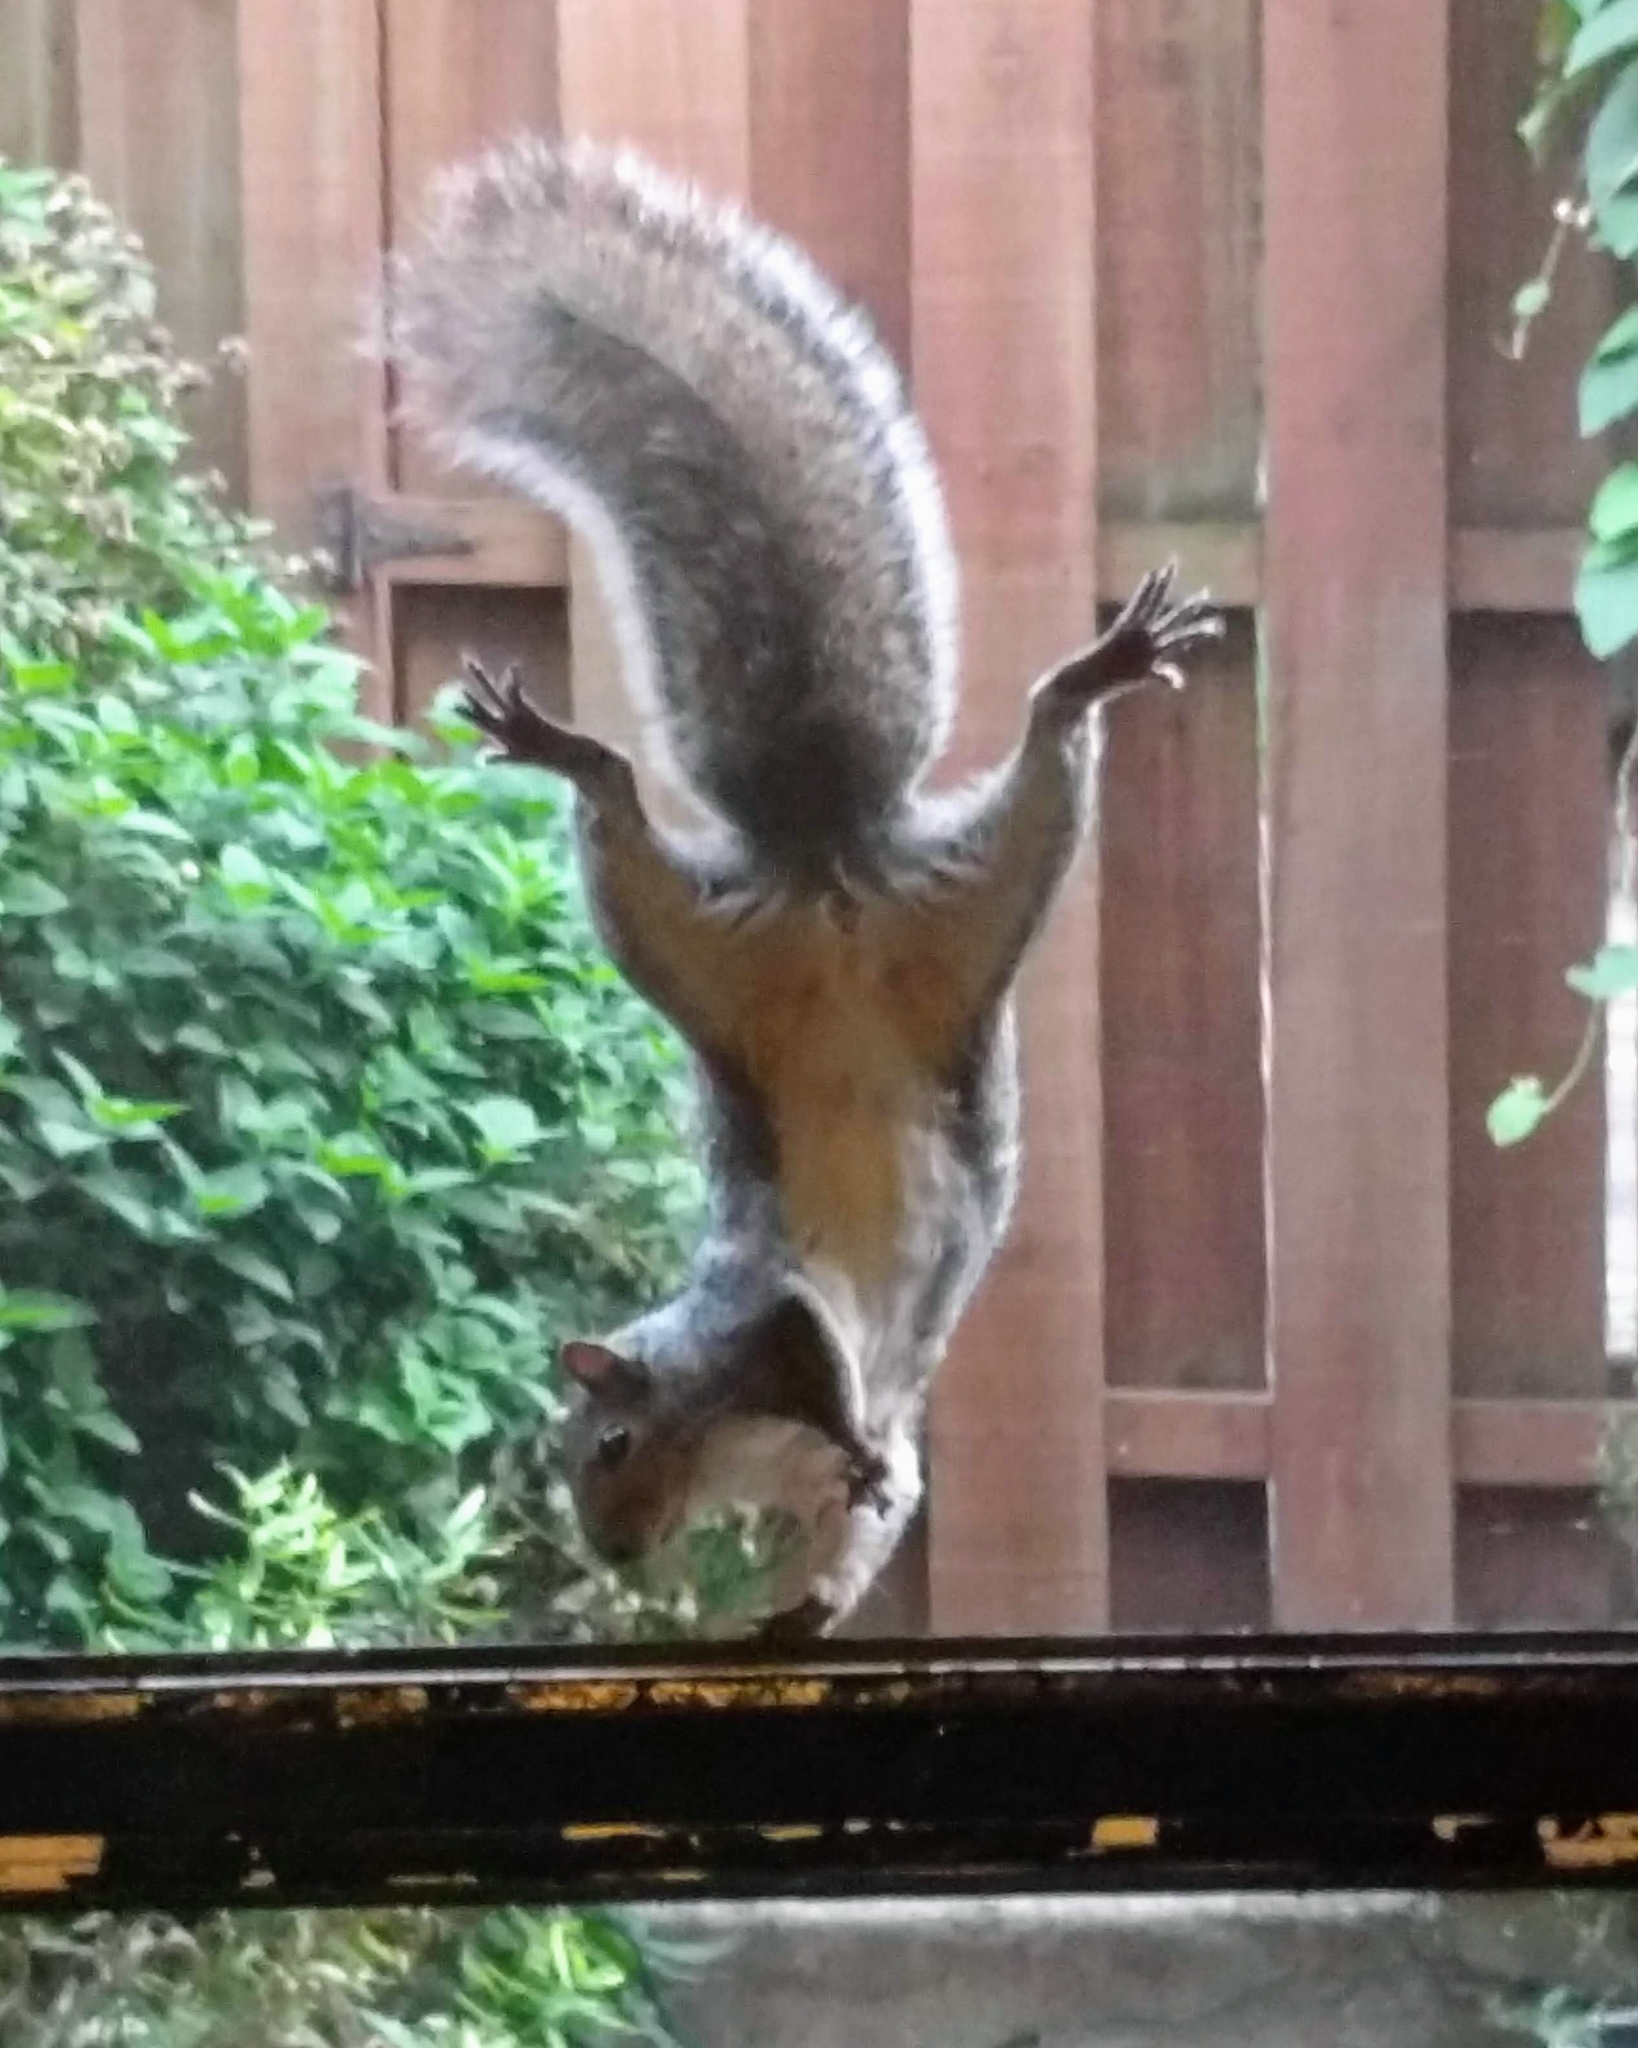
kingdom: Animalia
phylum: Chordata
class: Mammalia
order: Rodentia
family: Sciuridae
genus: Sciurus
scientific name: Sciurus carolinensis
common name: Eastern gray squirrel
